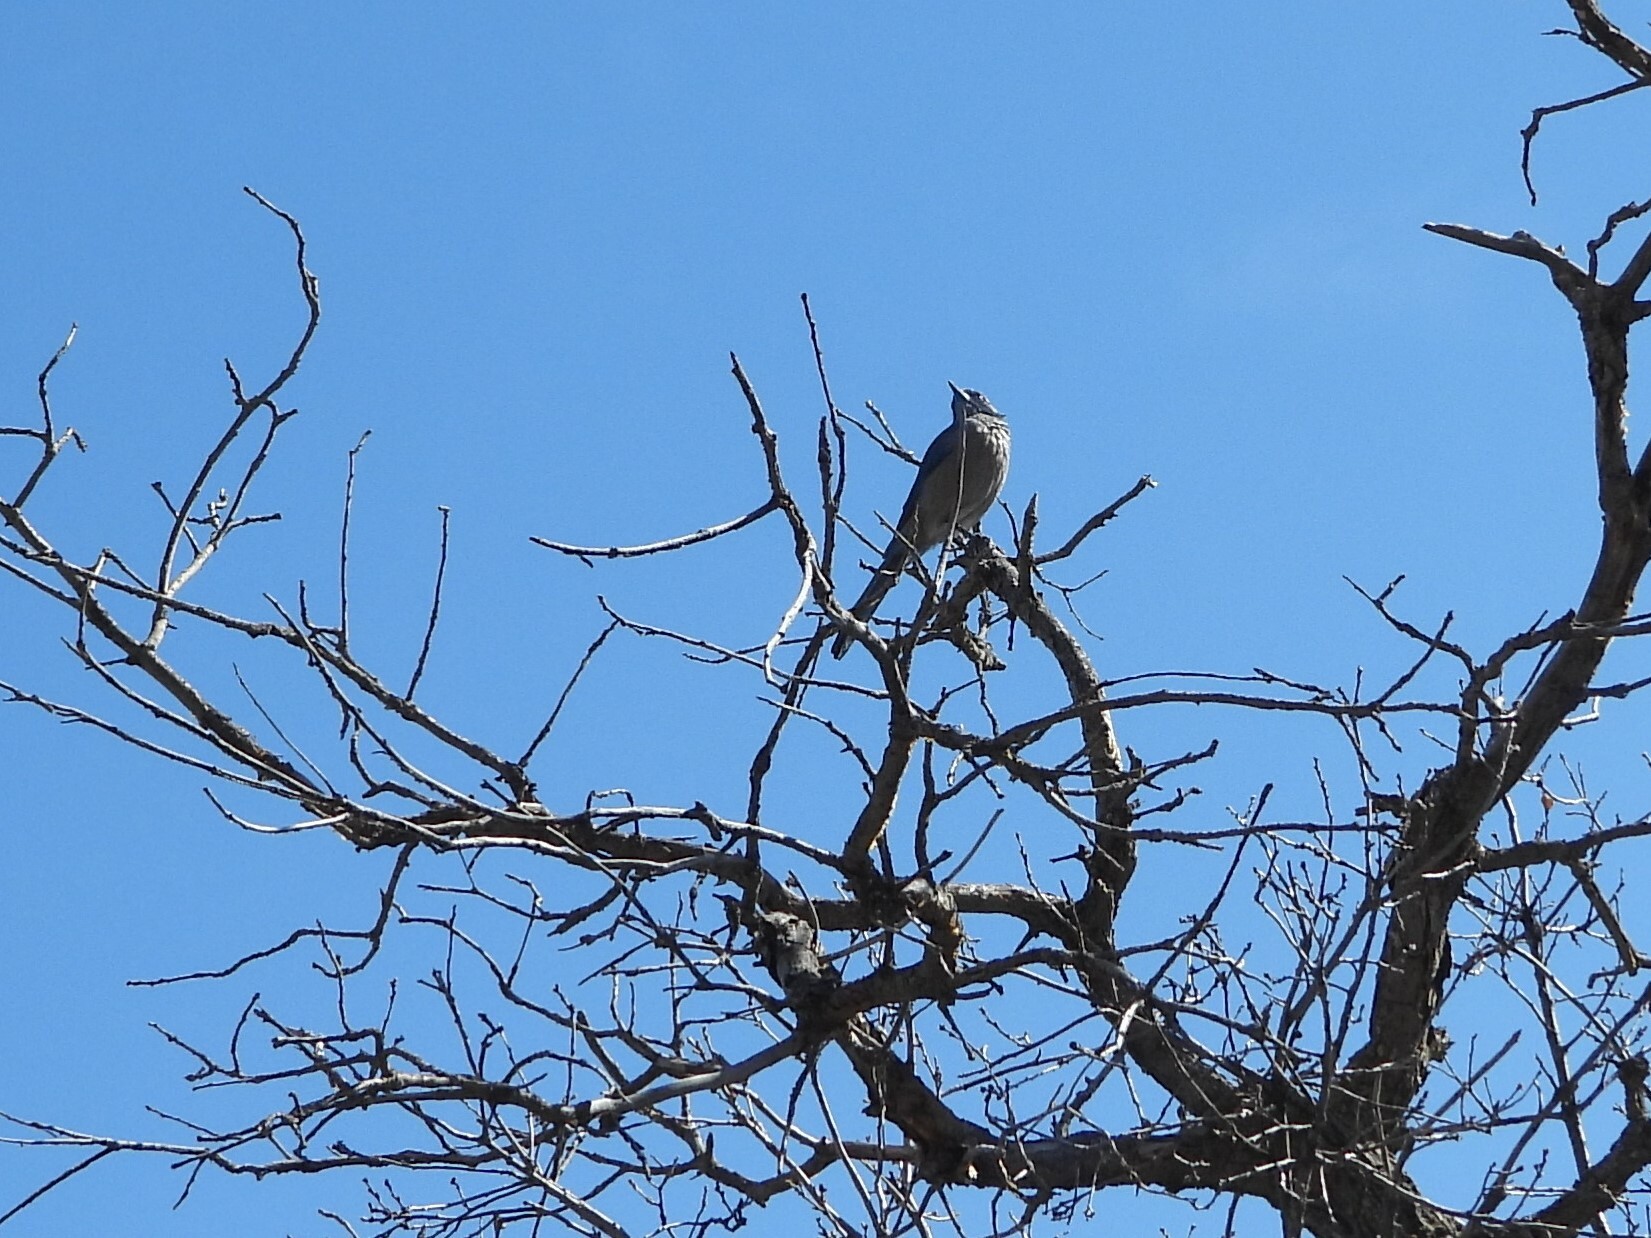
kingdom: Animalia
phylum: Chordata
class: Aves
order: Passeriformes
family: Corvidae
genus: Aphelocoma
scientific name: Aphelocoma woodhouseii
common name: Woodhouse's scrub-jay
